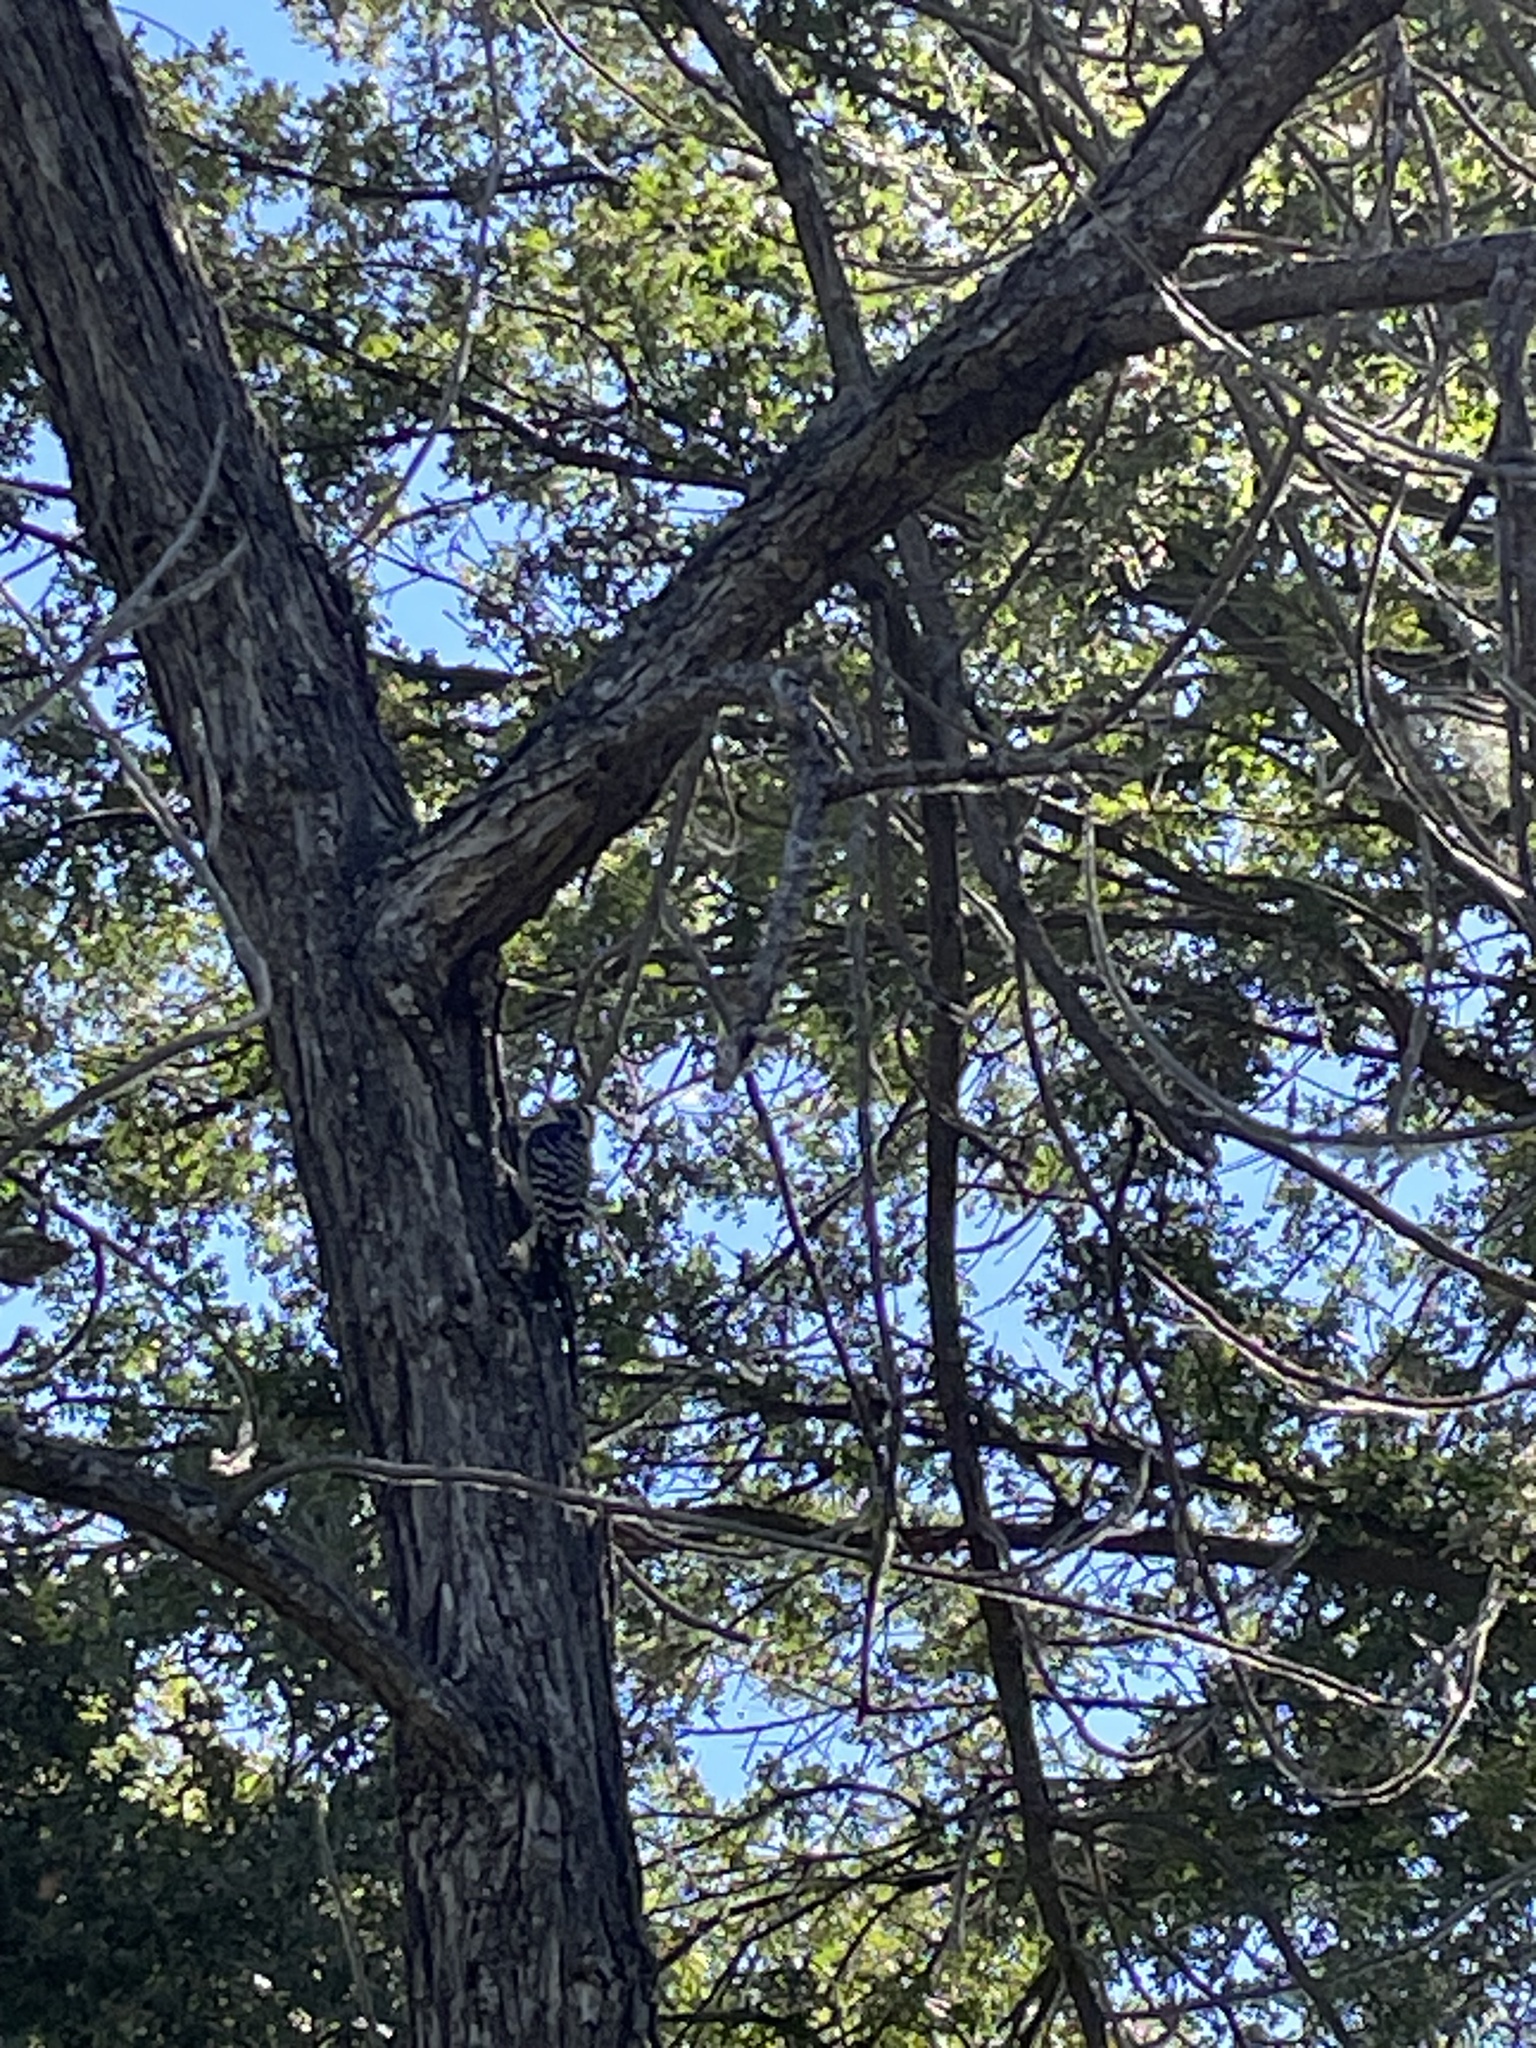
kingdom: Animalia
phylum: Chordata
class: Aves
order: Piciformes
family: Picidae
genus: Dryobates
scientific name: Dryobates nuttallii
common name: Nuttall's woodpecker
